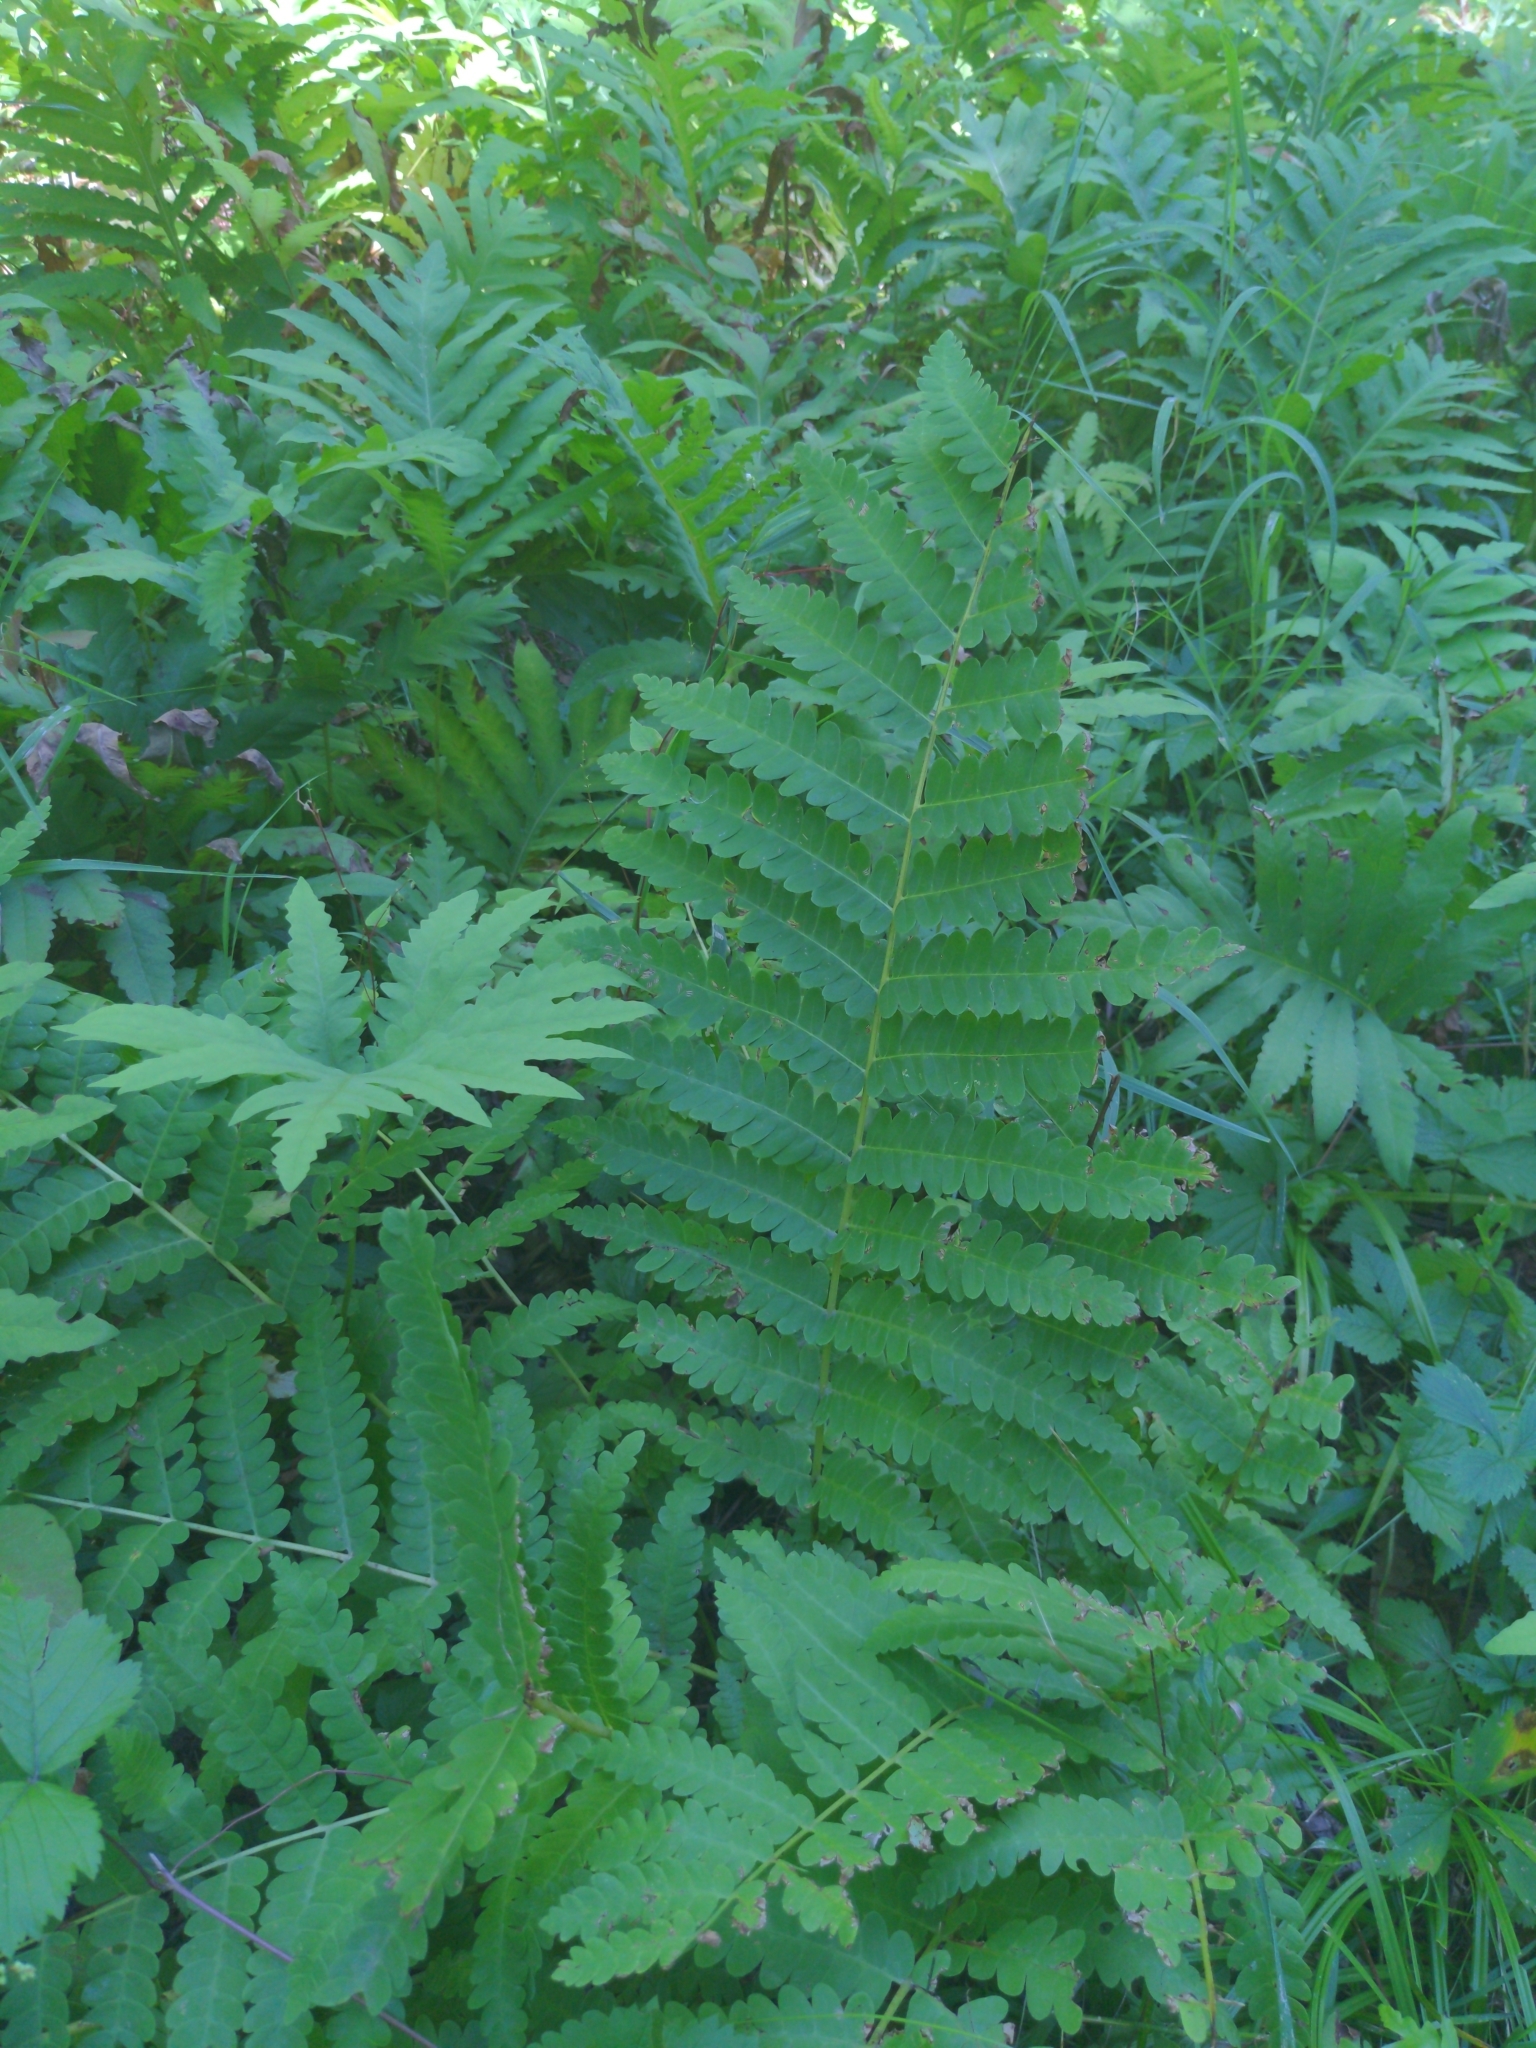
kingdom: Plantae
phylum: Tracheophyta
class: Polypodiopsida
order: Osmundales
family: Osmundaceae
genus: Claytosmunda
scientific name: Claytosmunda claytoniana
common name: Clayton's fern
